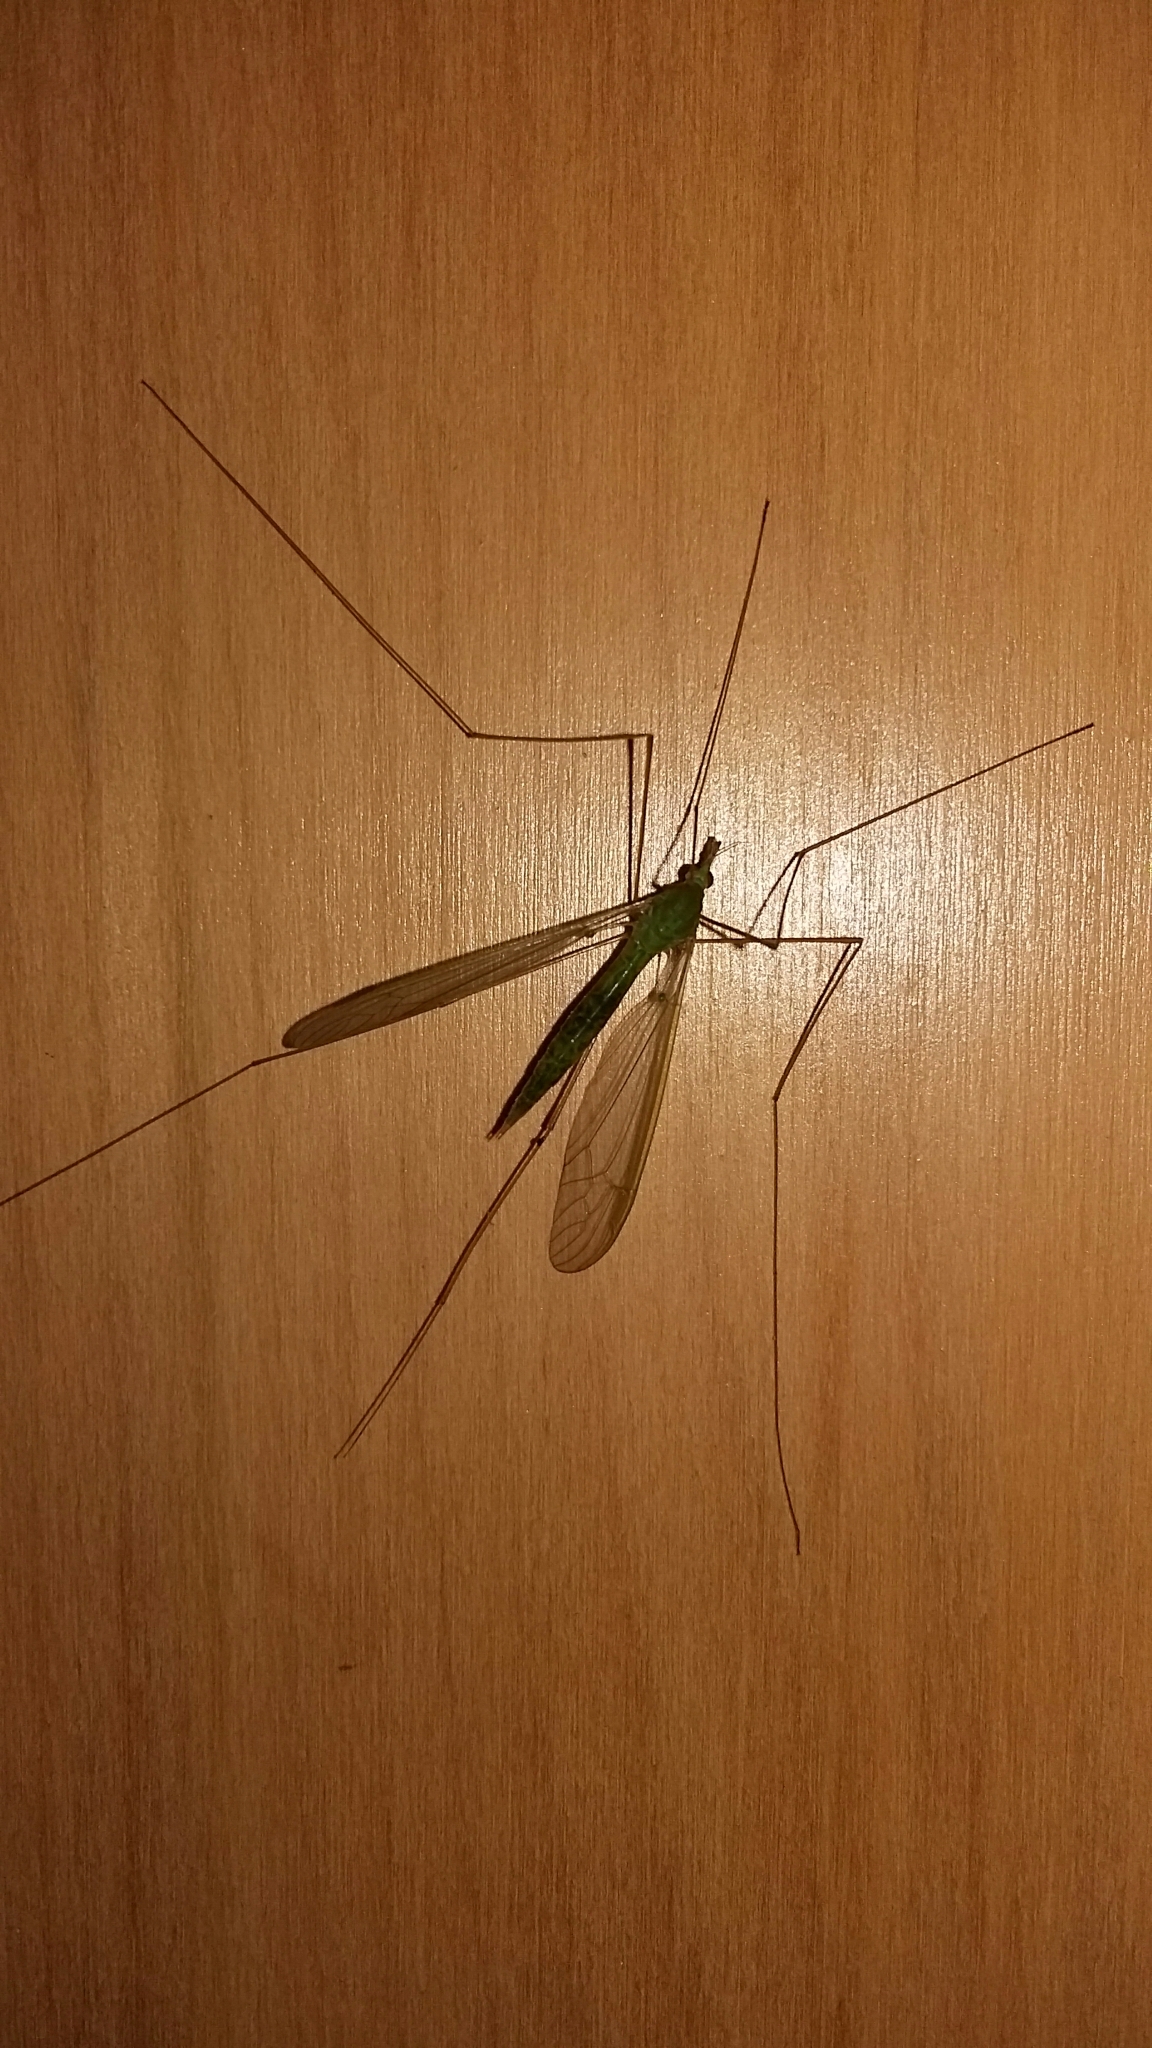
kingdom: Animalia
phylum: Arthropoda
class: Insecta
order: Diptera
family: Tipulidae
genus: Leptotarsus
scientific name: Leptotarsus virescens
